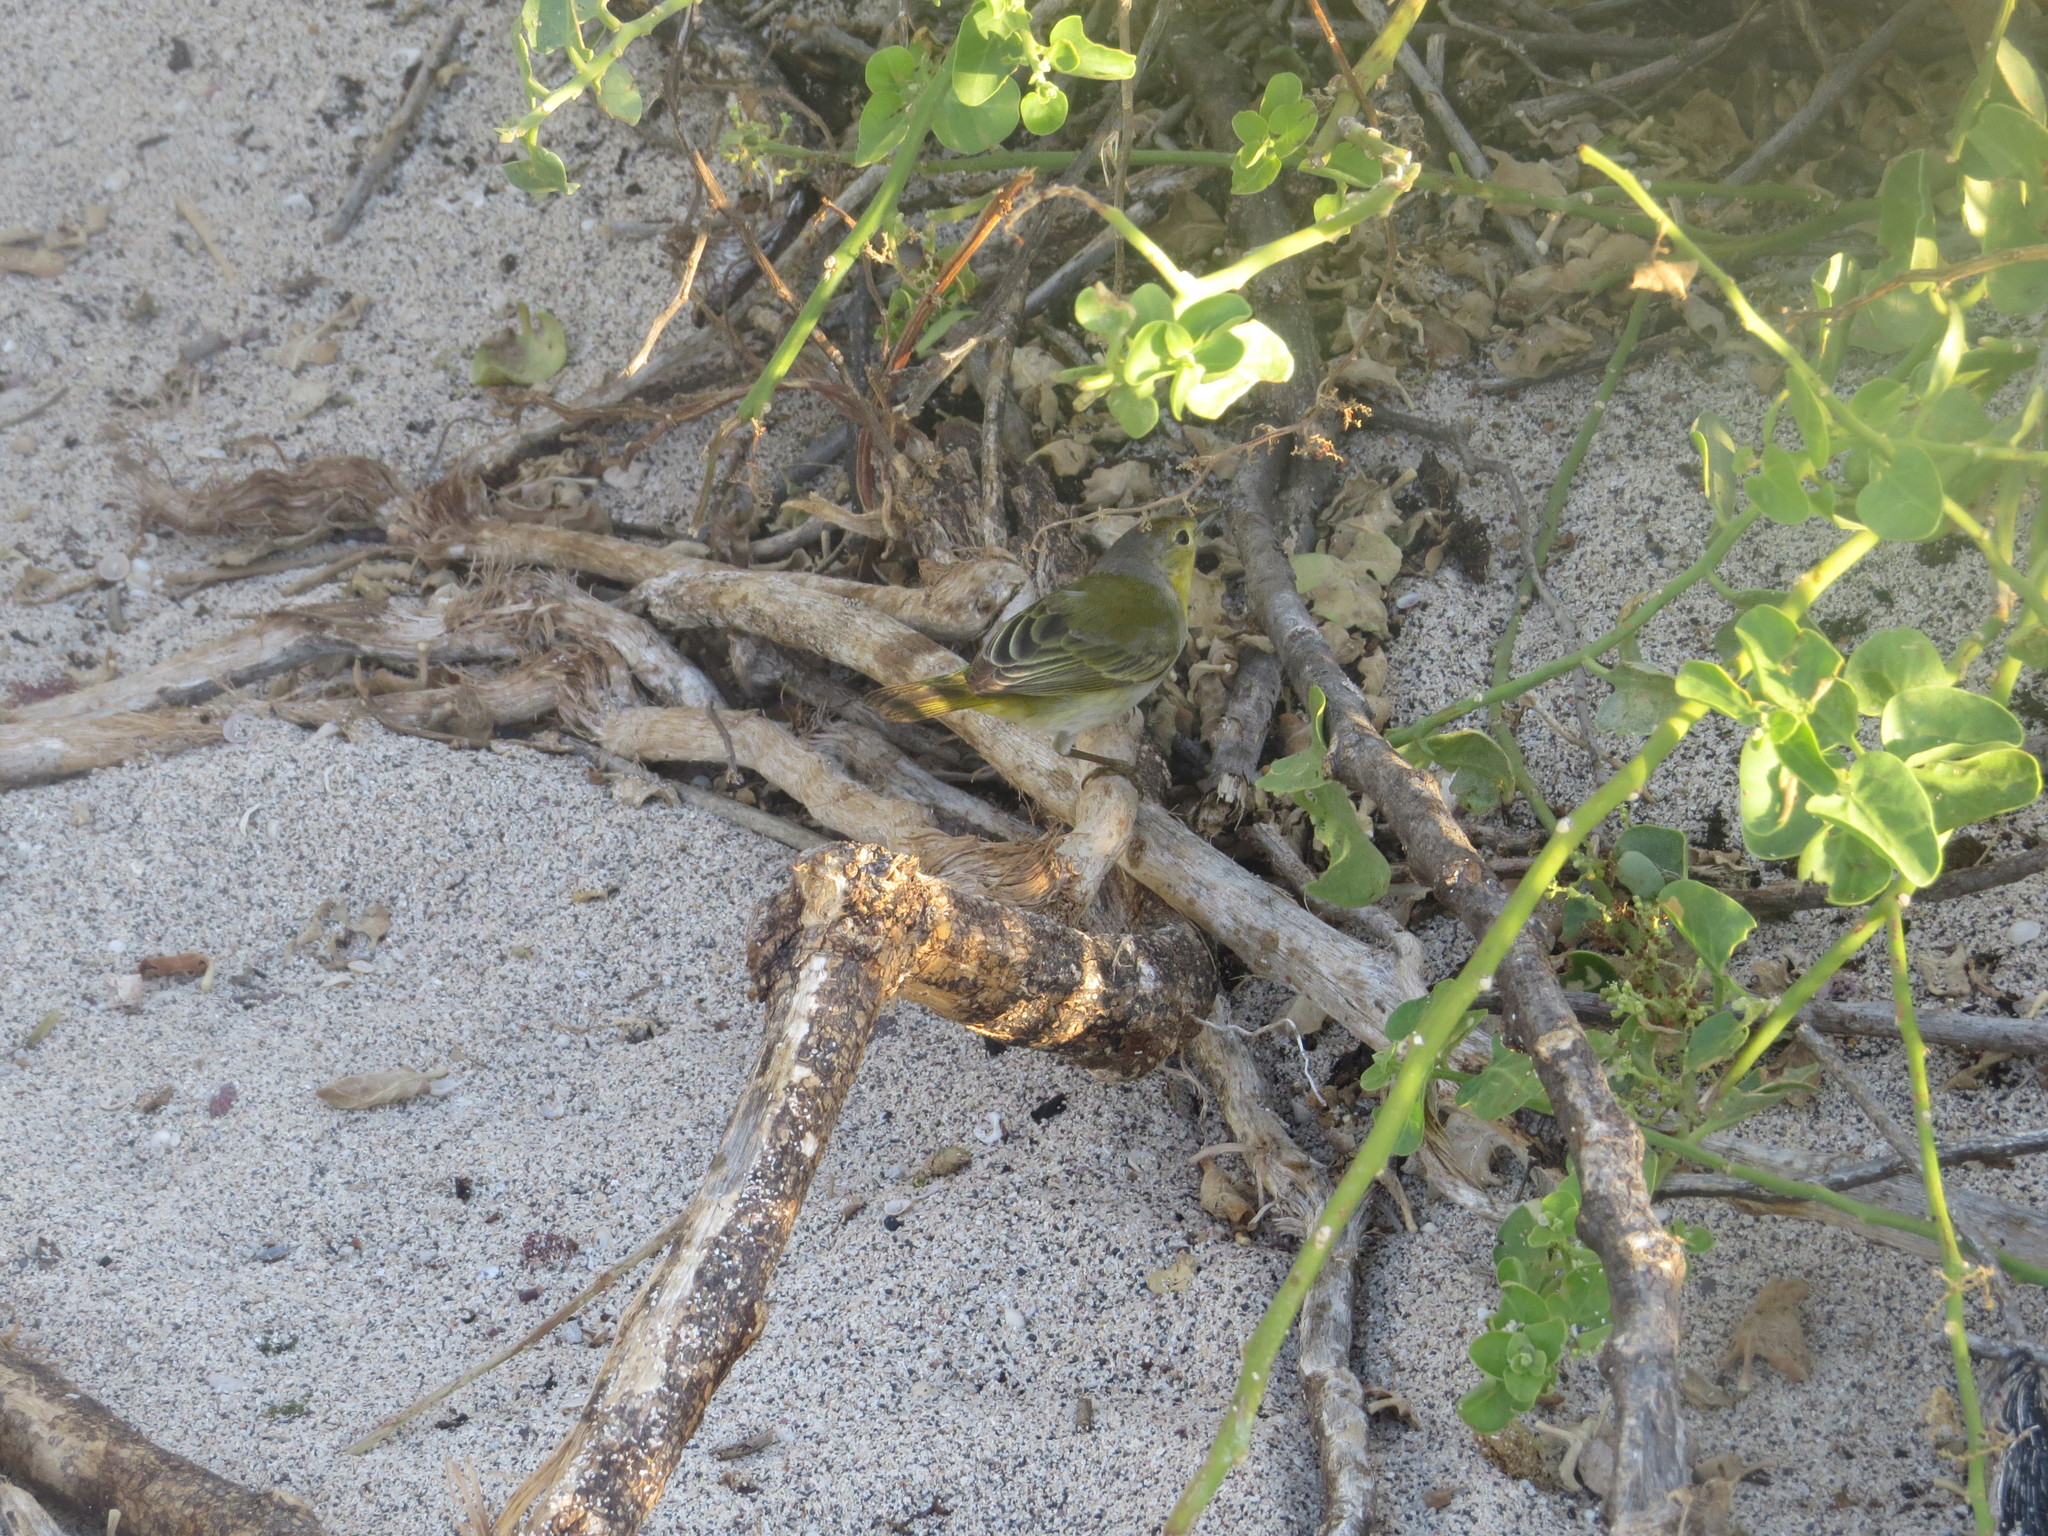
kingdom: Animalia
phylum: Chordata
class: Aves
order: Passeriformes
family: Parulidae
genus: Setophaga
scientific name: Setophaga petechia
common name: Yellow warbler
